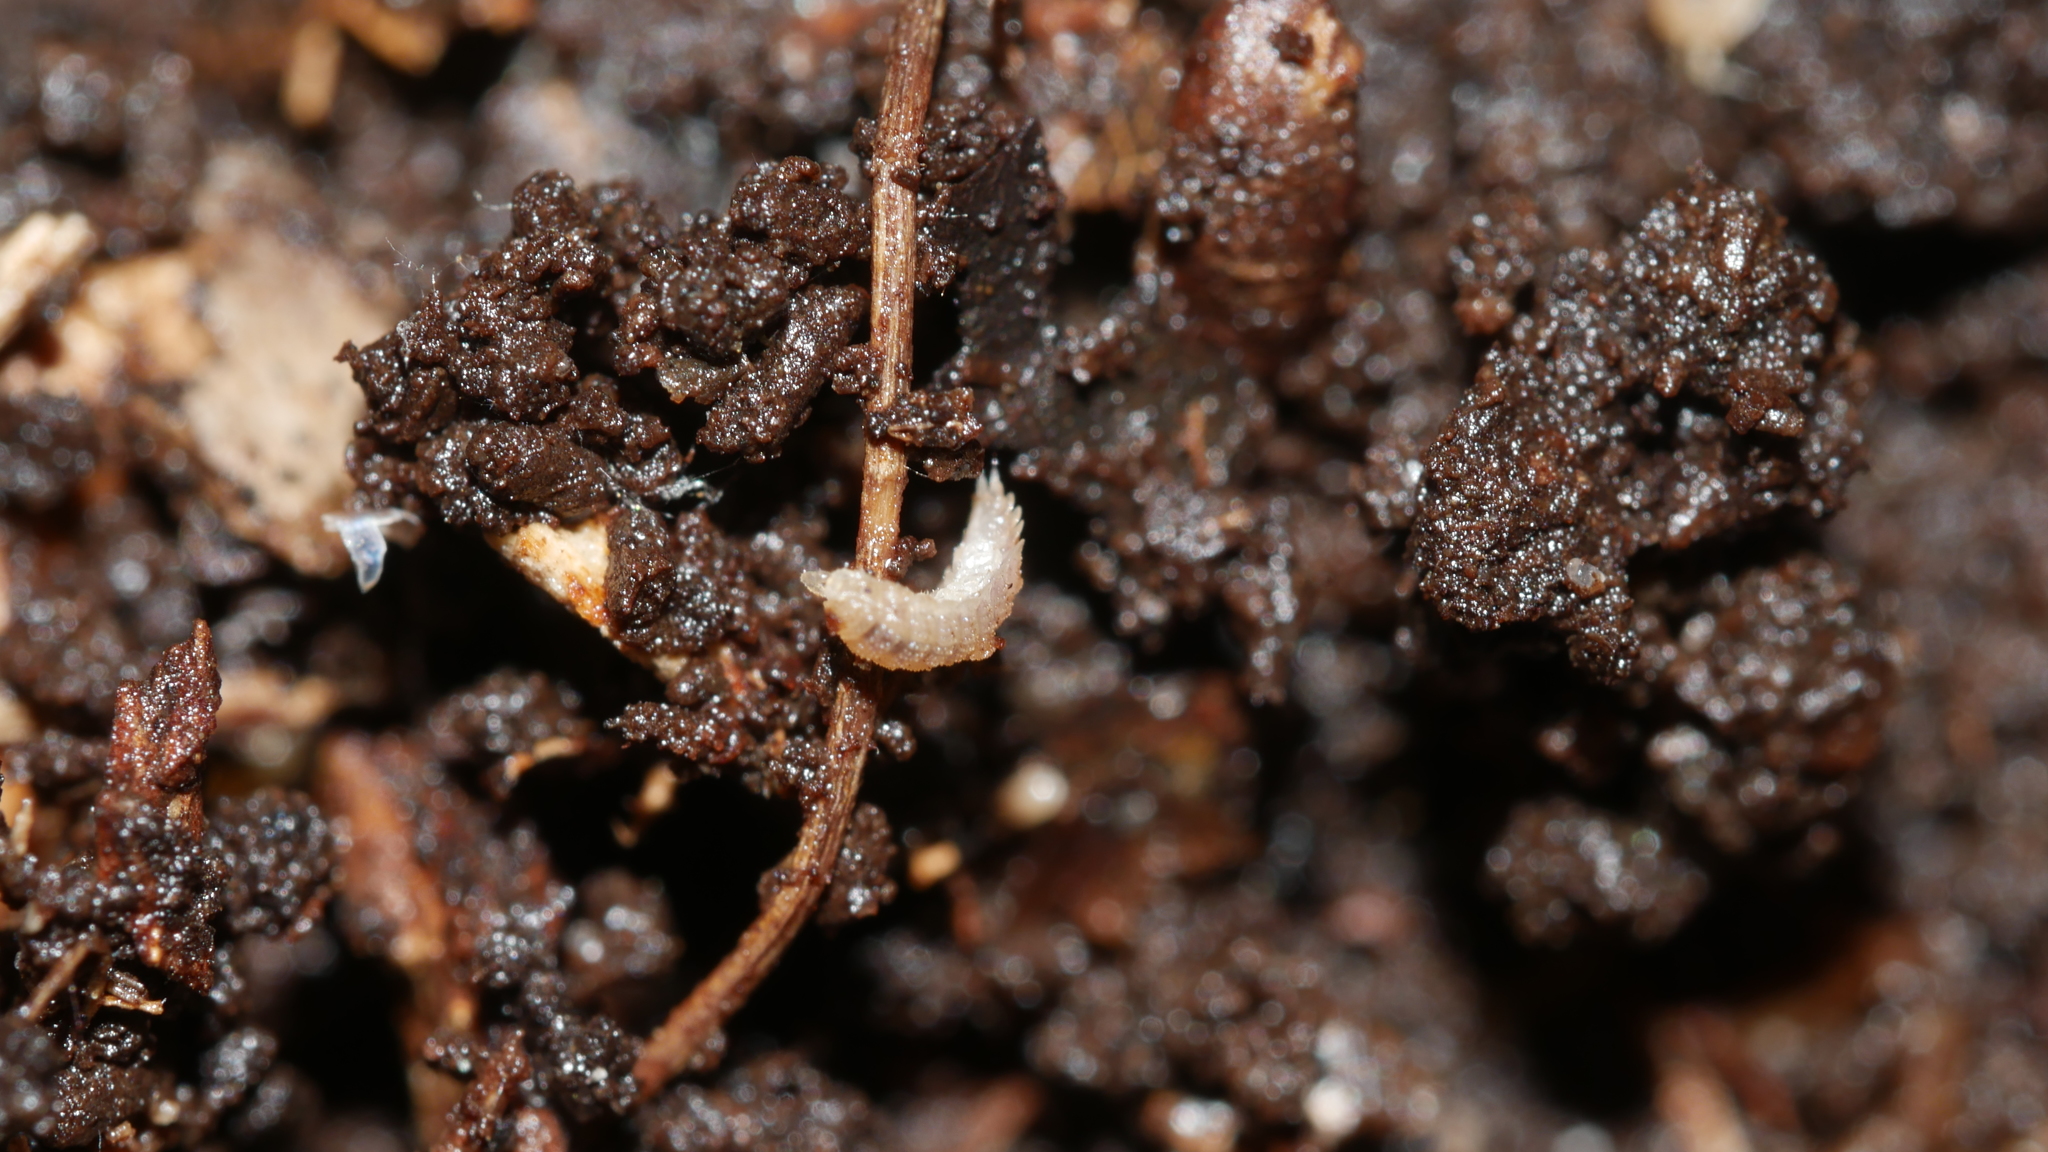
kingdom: Animalia
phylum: Arthropoda
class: Malacostraca
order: Isopoda
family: Trichoniscidae
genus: Haplophthalmus
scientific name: Haplophthalmus danicus
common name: Pillbug
